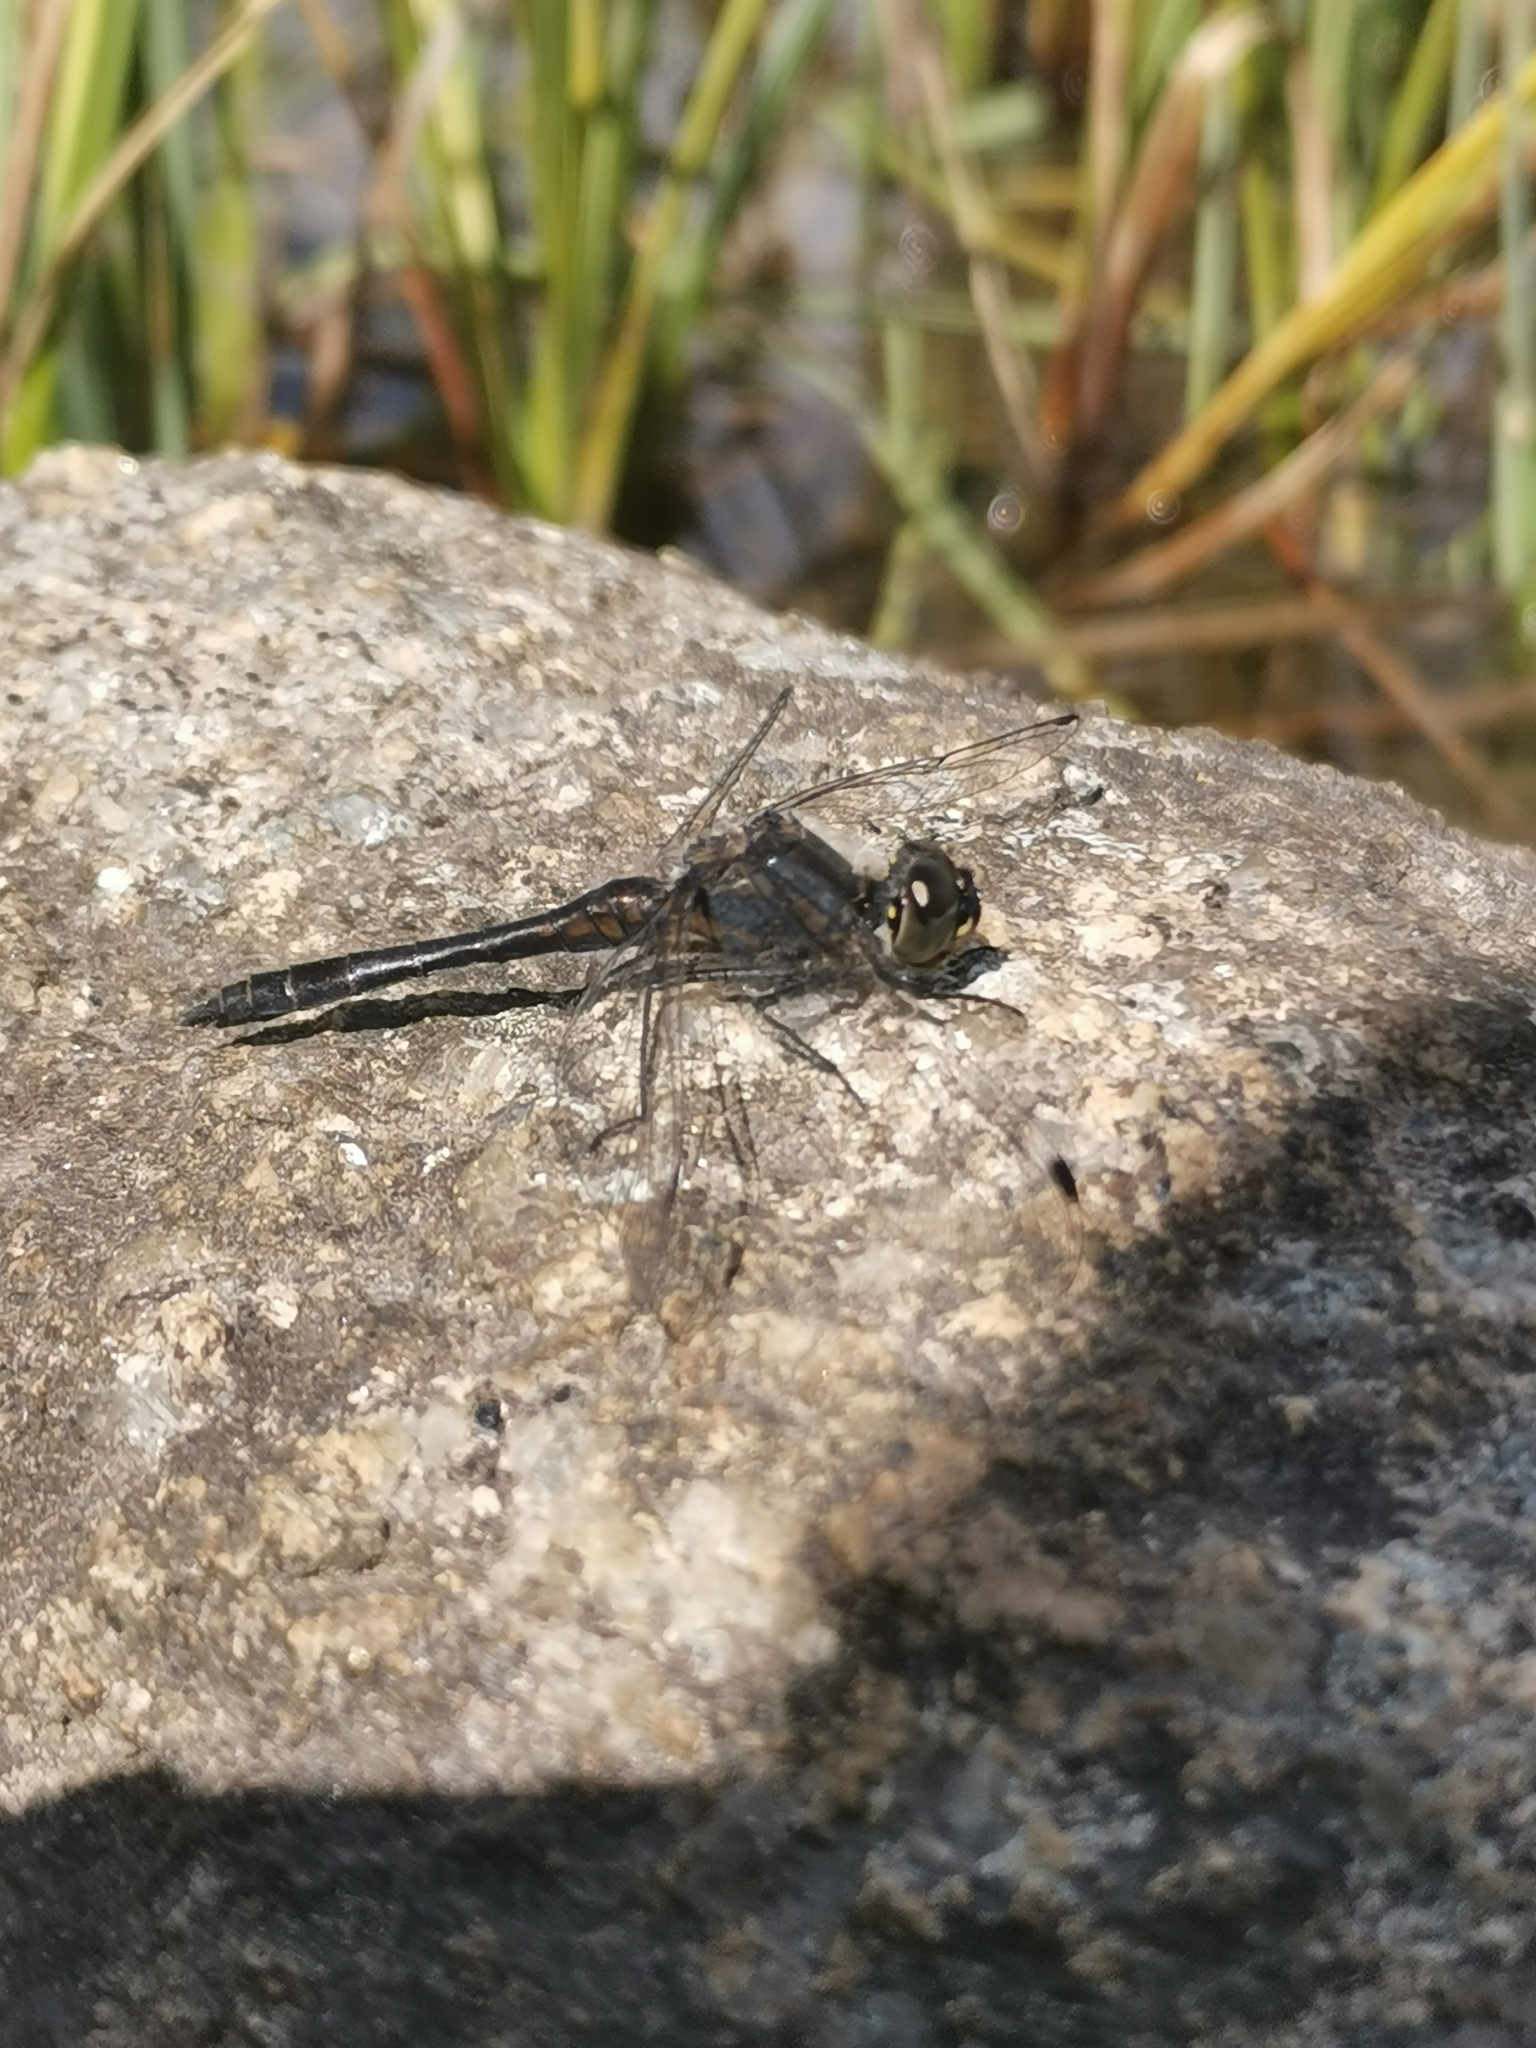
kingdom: Animalia
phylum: Arthropoda
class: Insecta
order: Odonata
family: Libellulidae
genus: Sympetrum
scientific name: Sympetrum danae
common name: Black darter
